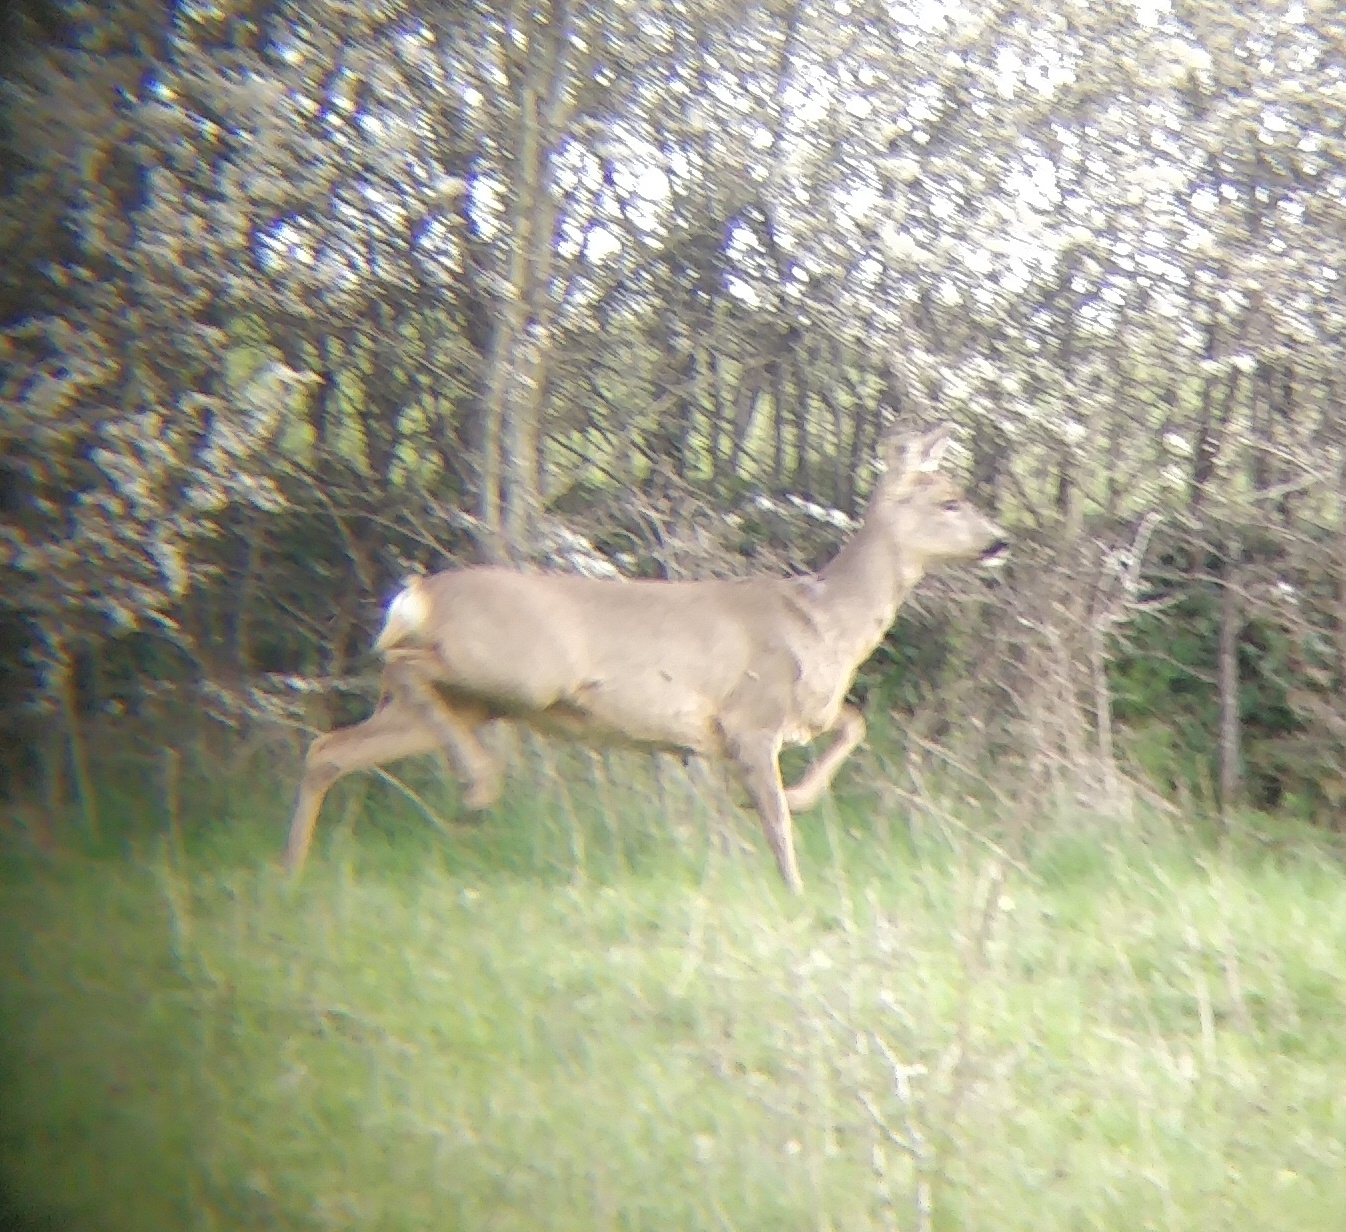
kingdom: Animalia
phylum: Chordata
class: Mammalia
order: Artiodactyla
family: Cervidae
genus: Capreolus
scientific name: Capreolus capreolus
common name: Western roe deer
